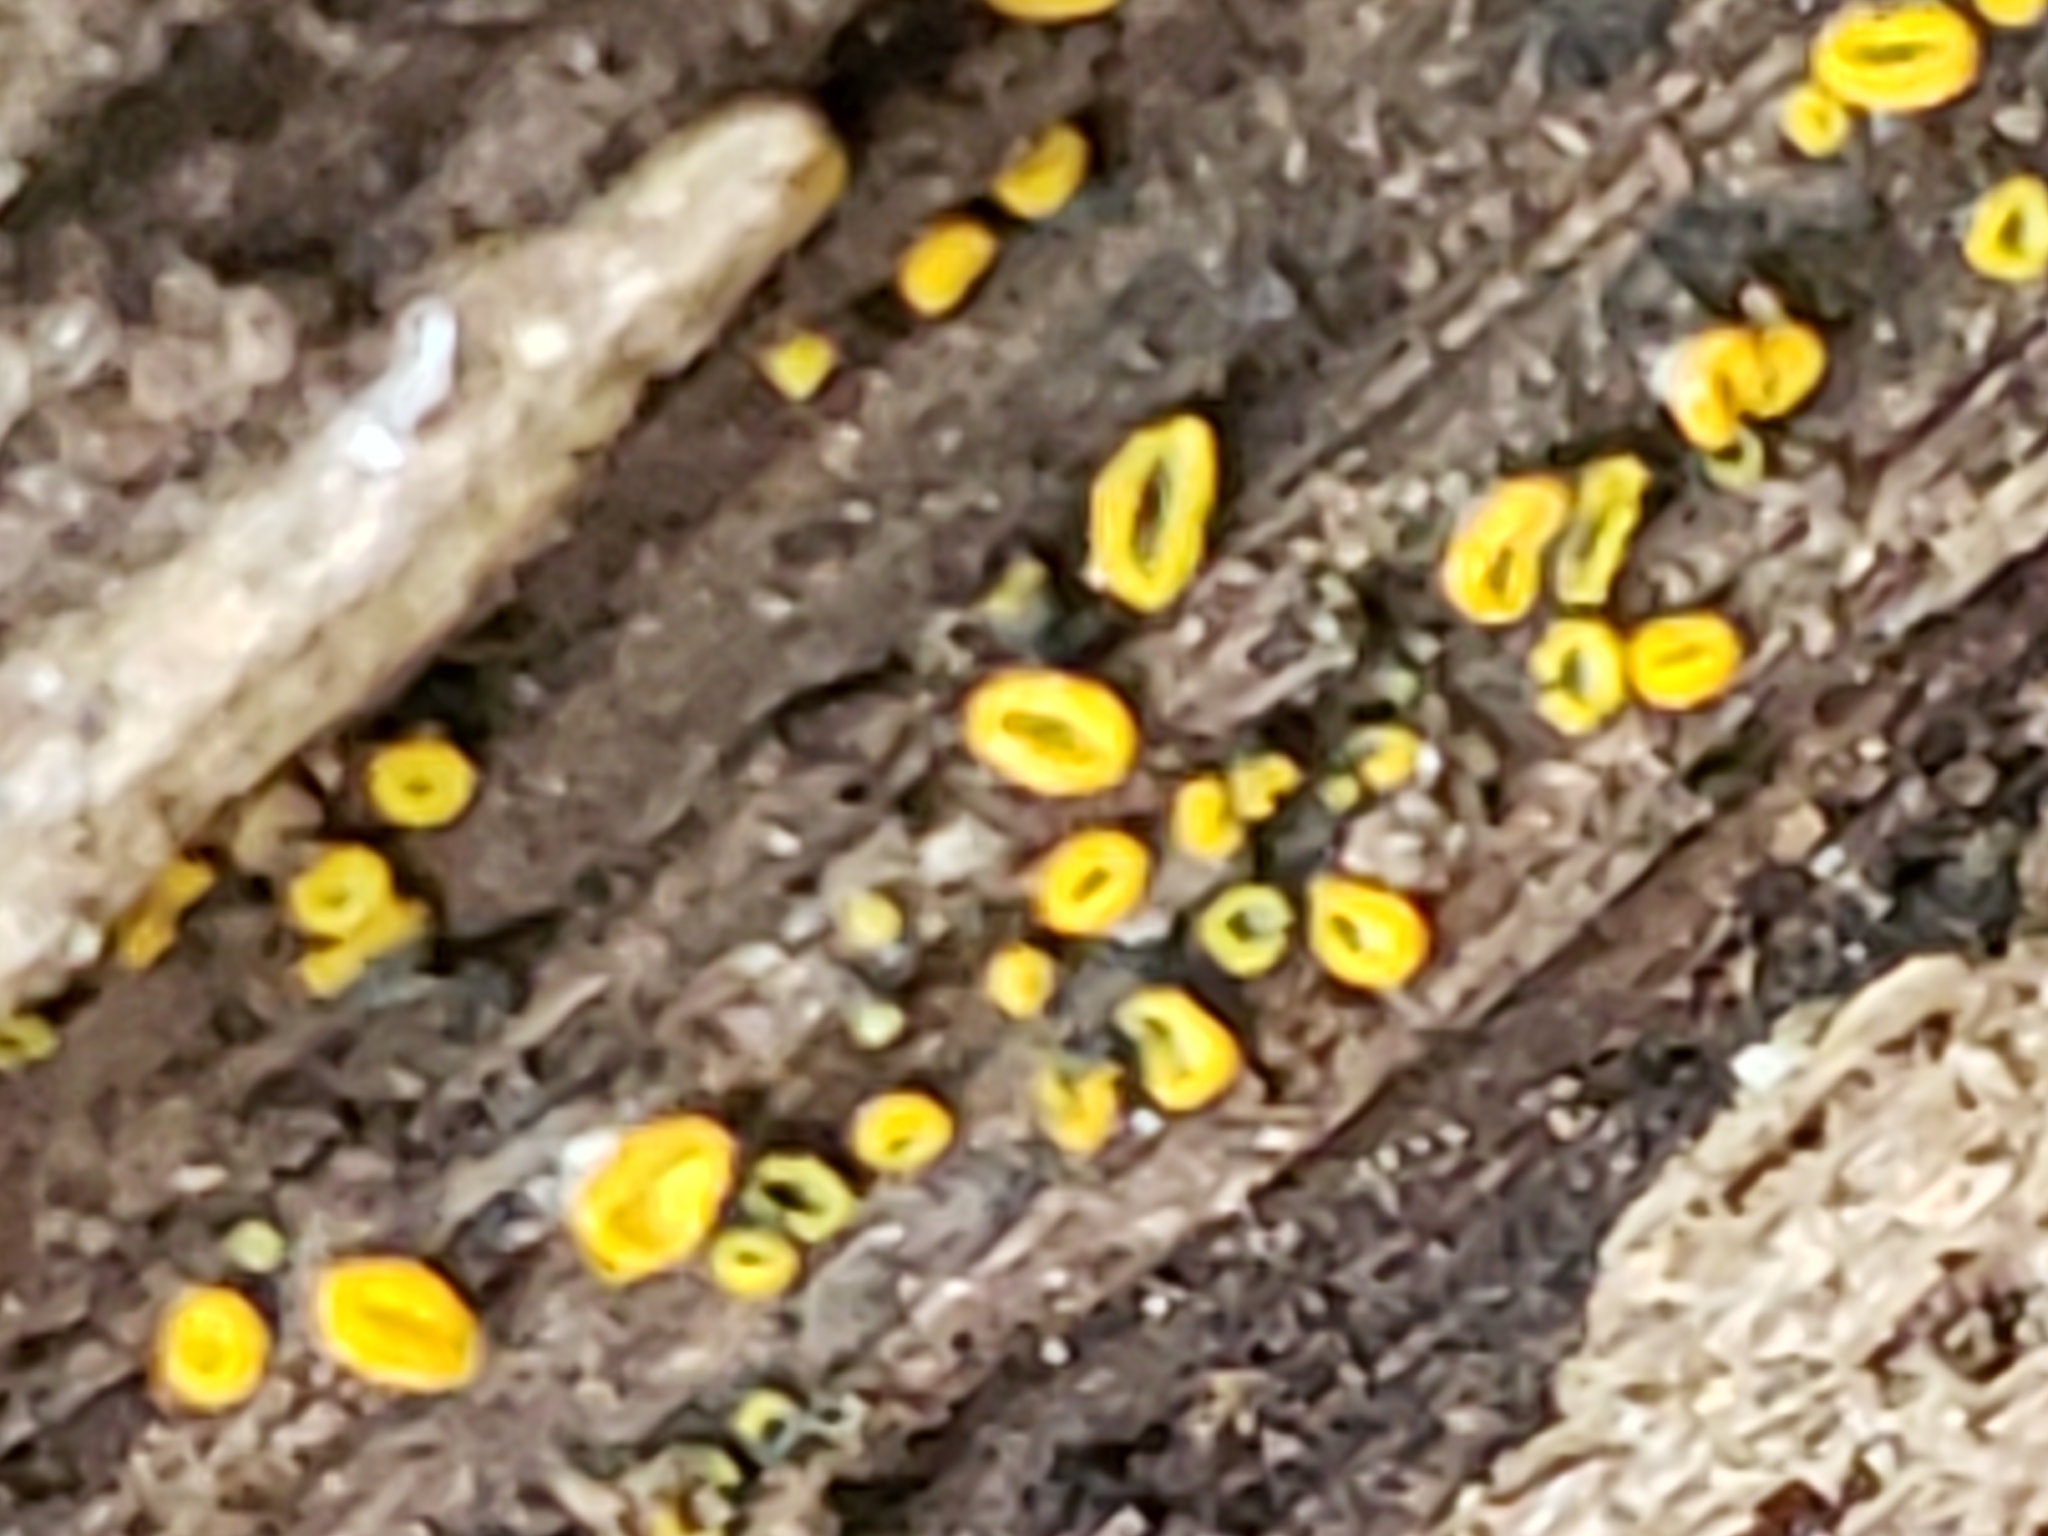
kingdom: Fungi
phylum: Ascomycota
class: Leotiomycetes
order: Helotiales
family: Chlorospleniaceae
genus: Chlorosplenium
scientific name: Chlorosplenium chlora
